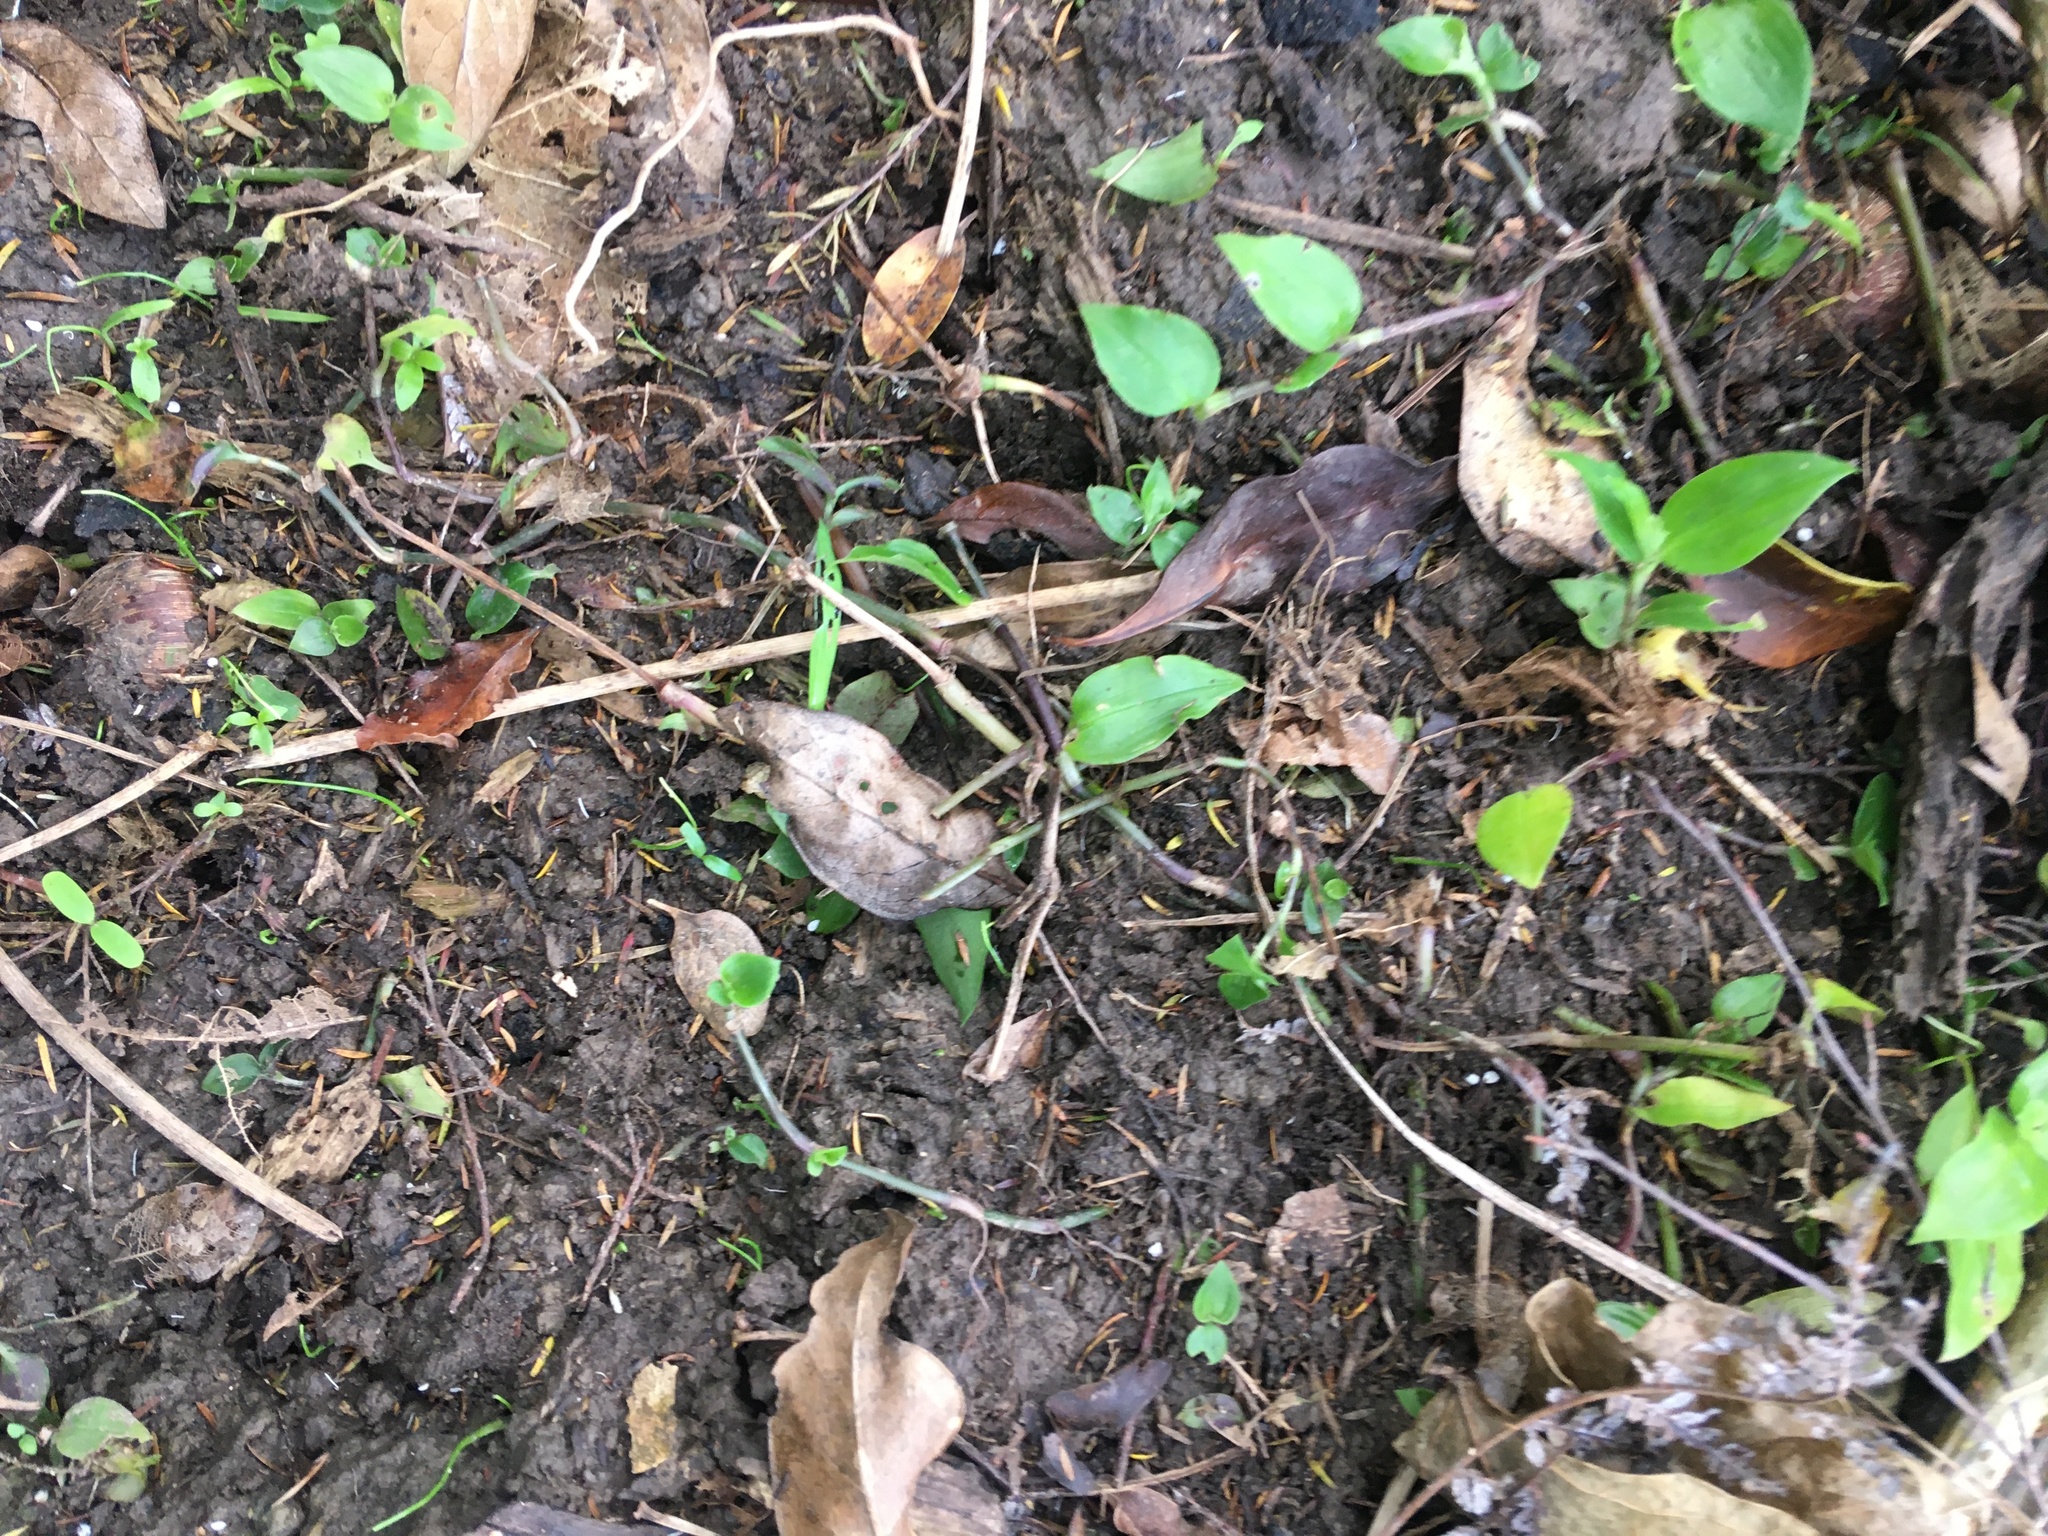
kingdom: Plantae
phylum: Tracheophyta
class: Magnoliopsida
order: Gentianales
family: Rubiaceae
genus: Coprosma
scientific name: Coprosma robusta
